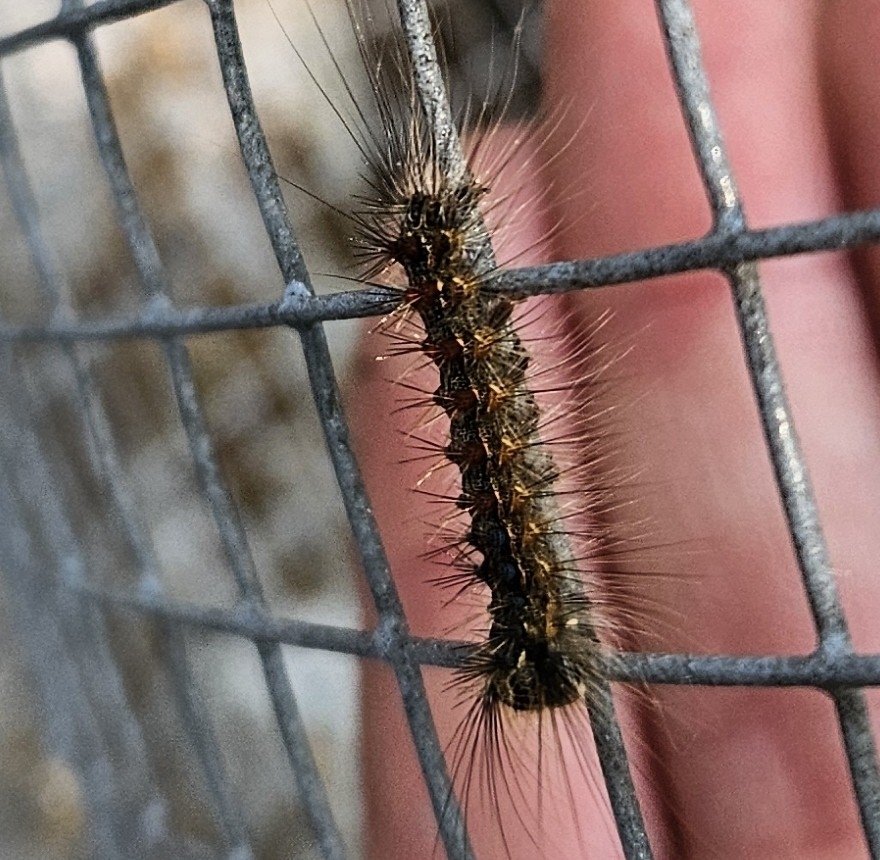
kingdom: Animalia
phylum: Arthropoda
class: Insecta
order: Lepidoptera
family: Erebidae
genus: Lymantria
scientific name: Lymantria dispar
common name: Gypsy moth
